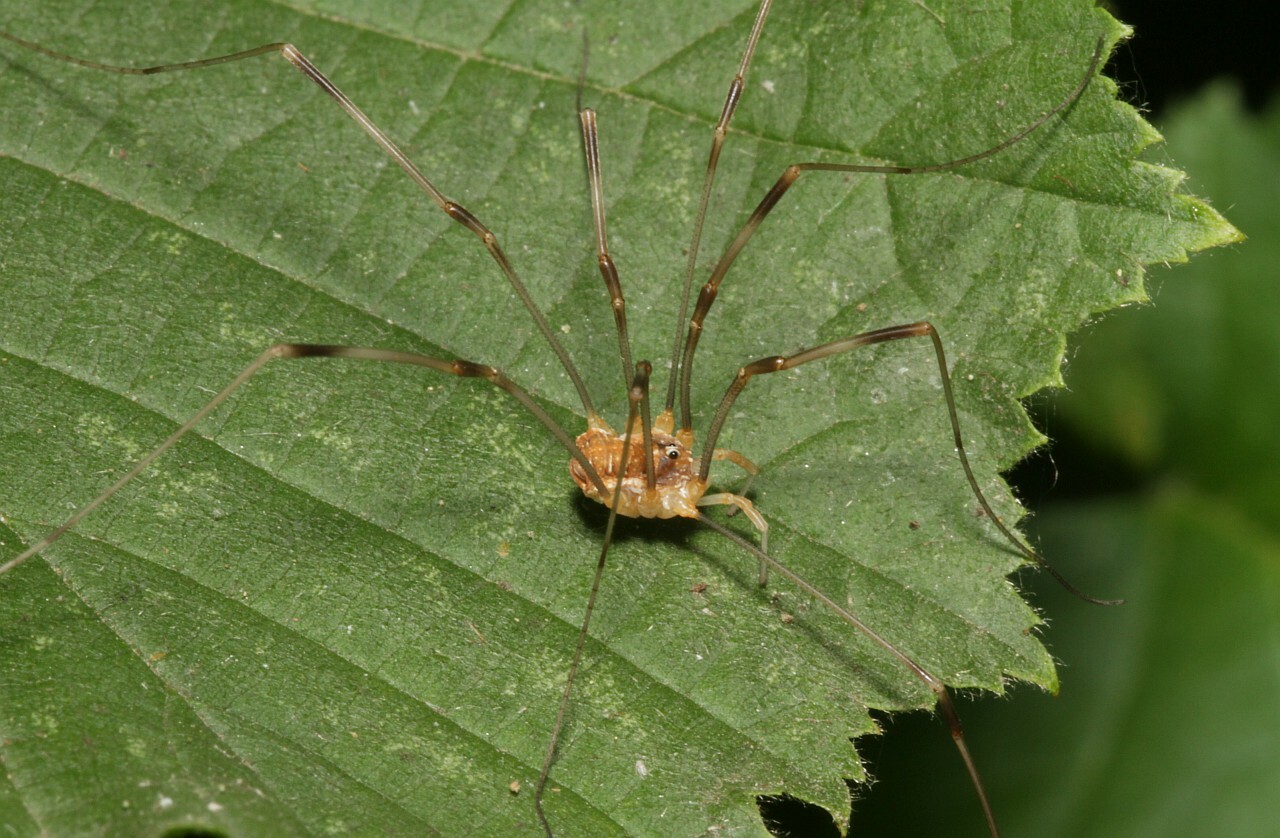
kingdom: Animalia
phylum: Arthropoda
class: Arachnida
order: Opiliones
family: Phalangiidae
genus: Opilio
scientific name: Opilio canestrinii
